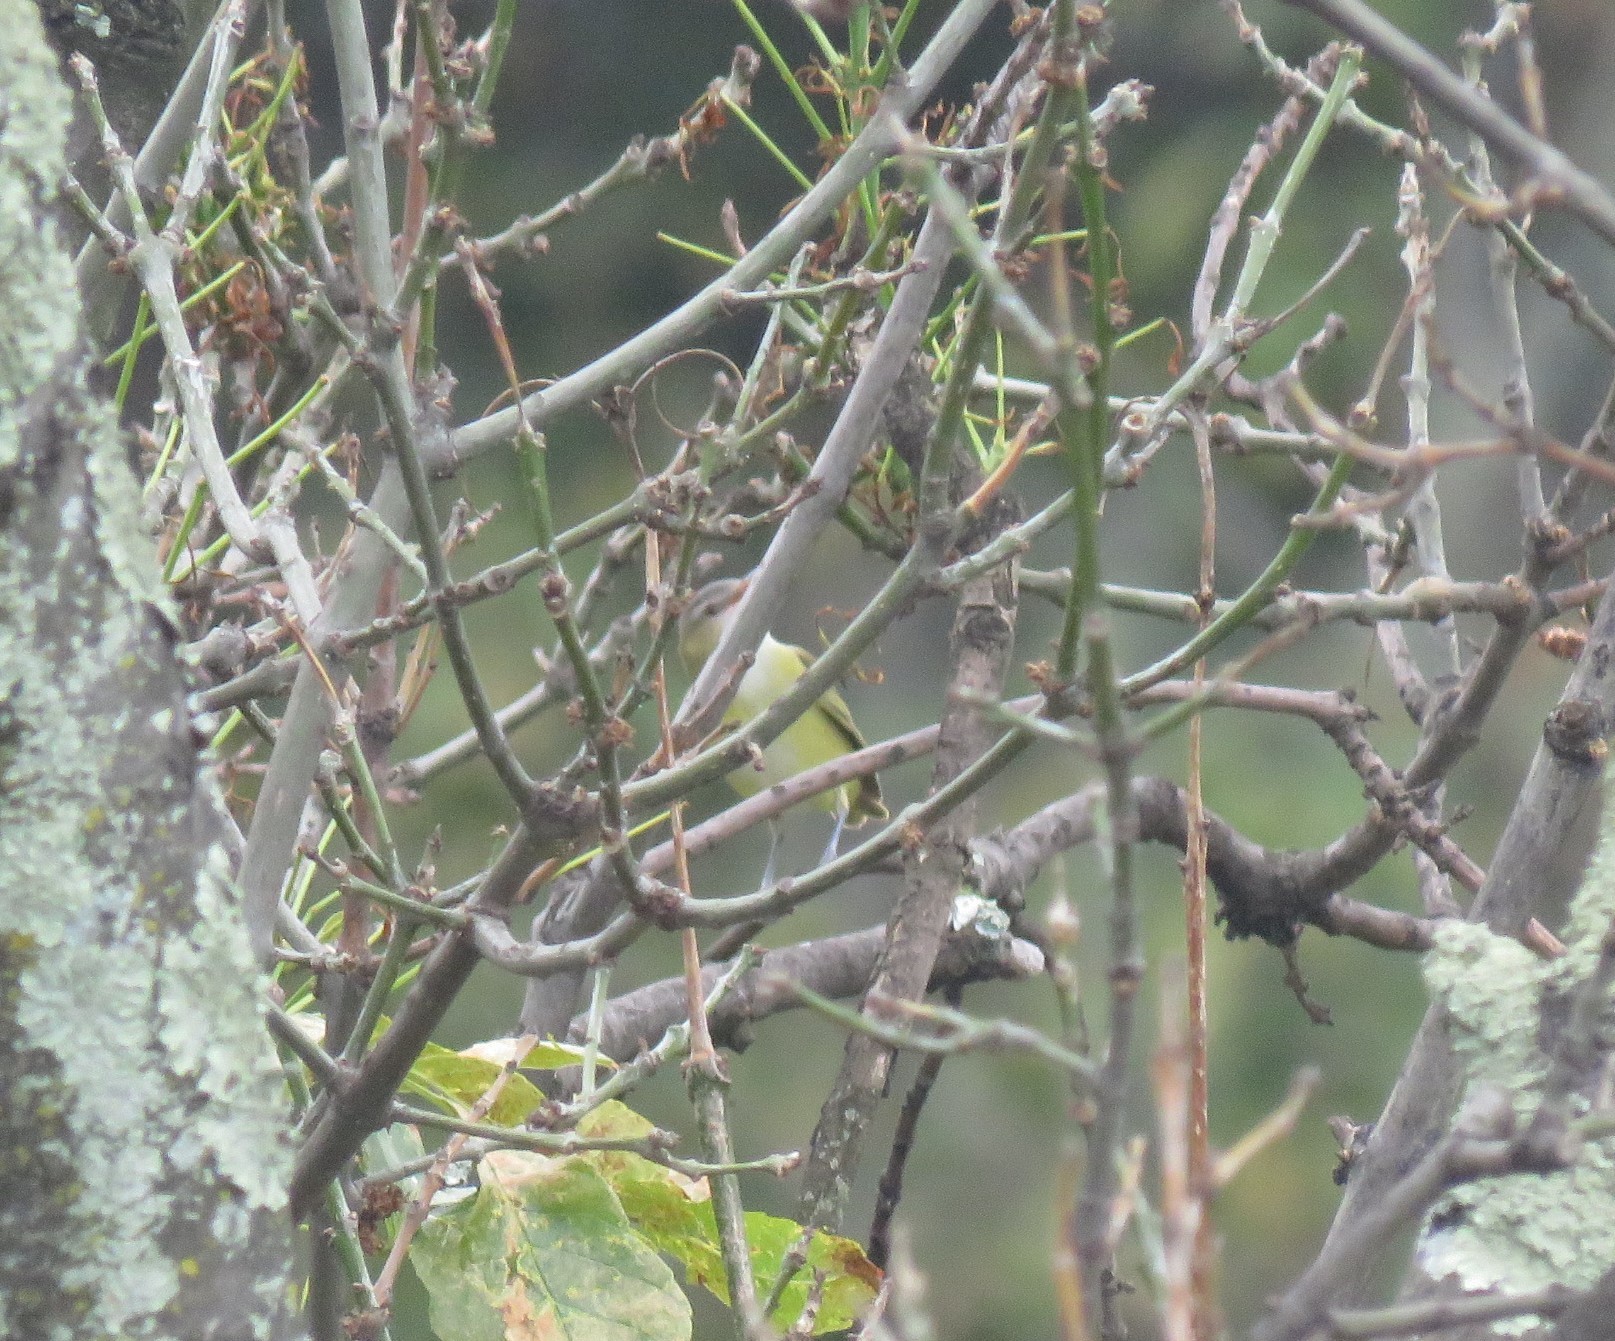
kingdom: Animalia
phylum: Chordata
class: Aves
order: Passeriformes
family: Vireonidae
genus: Vireo
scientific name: Vireo flavoviridis
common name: Yellow-green vireo
